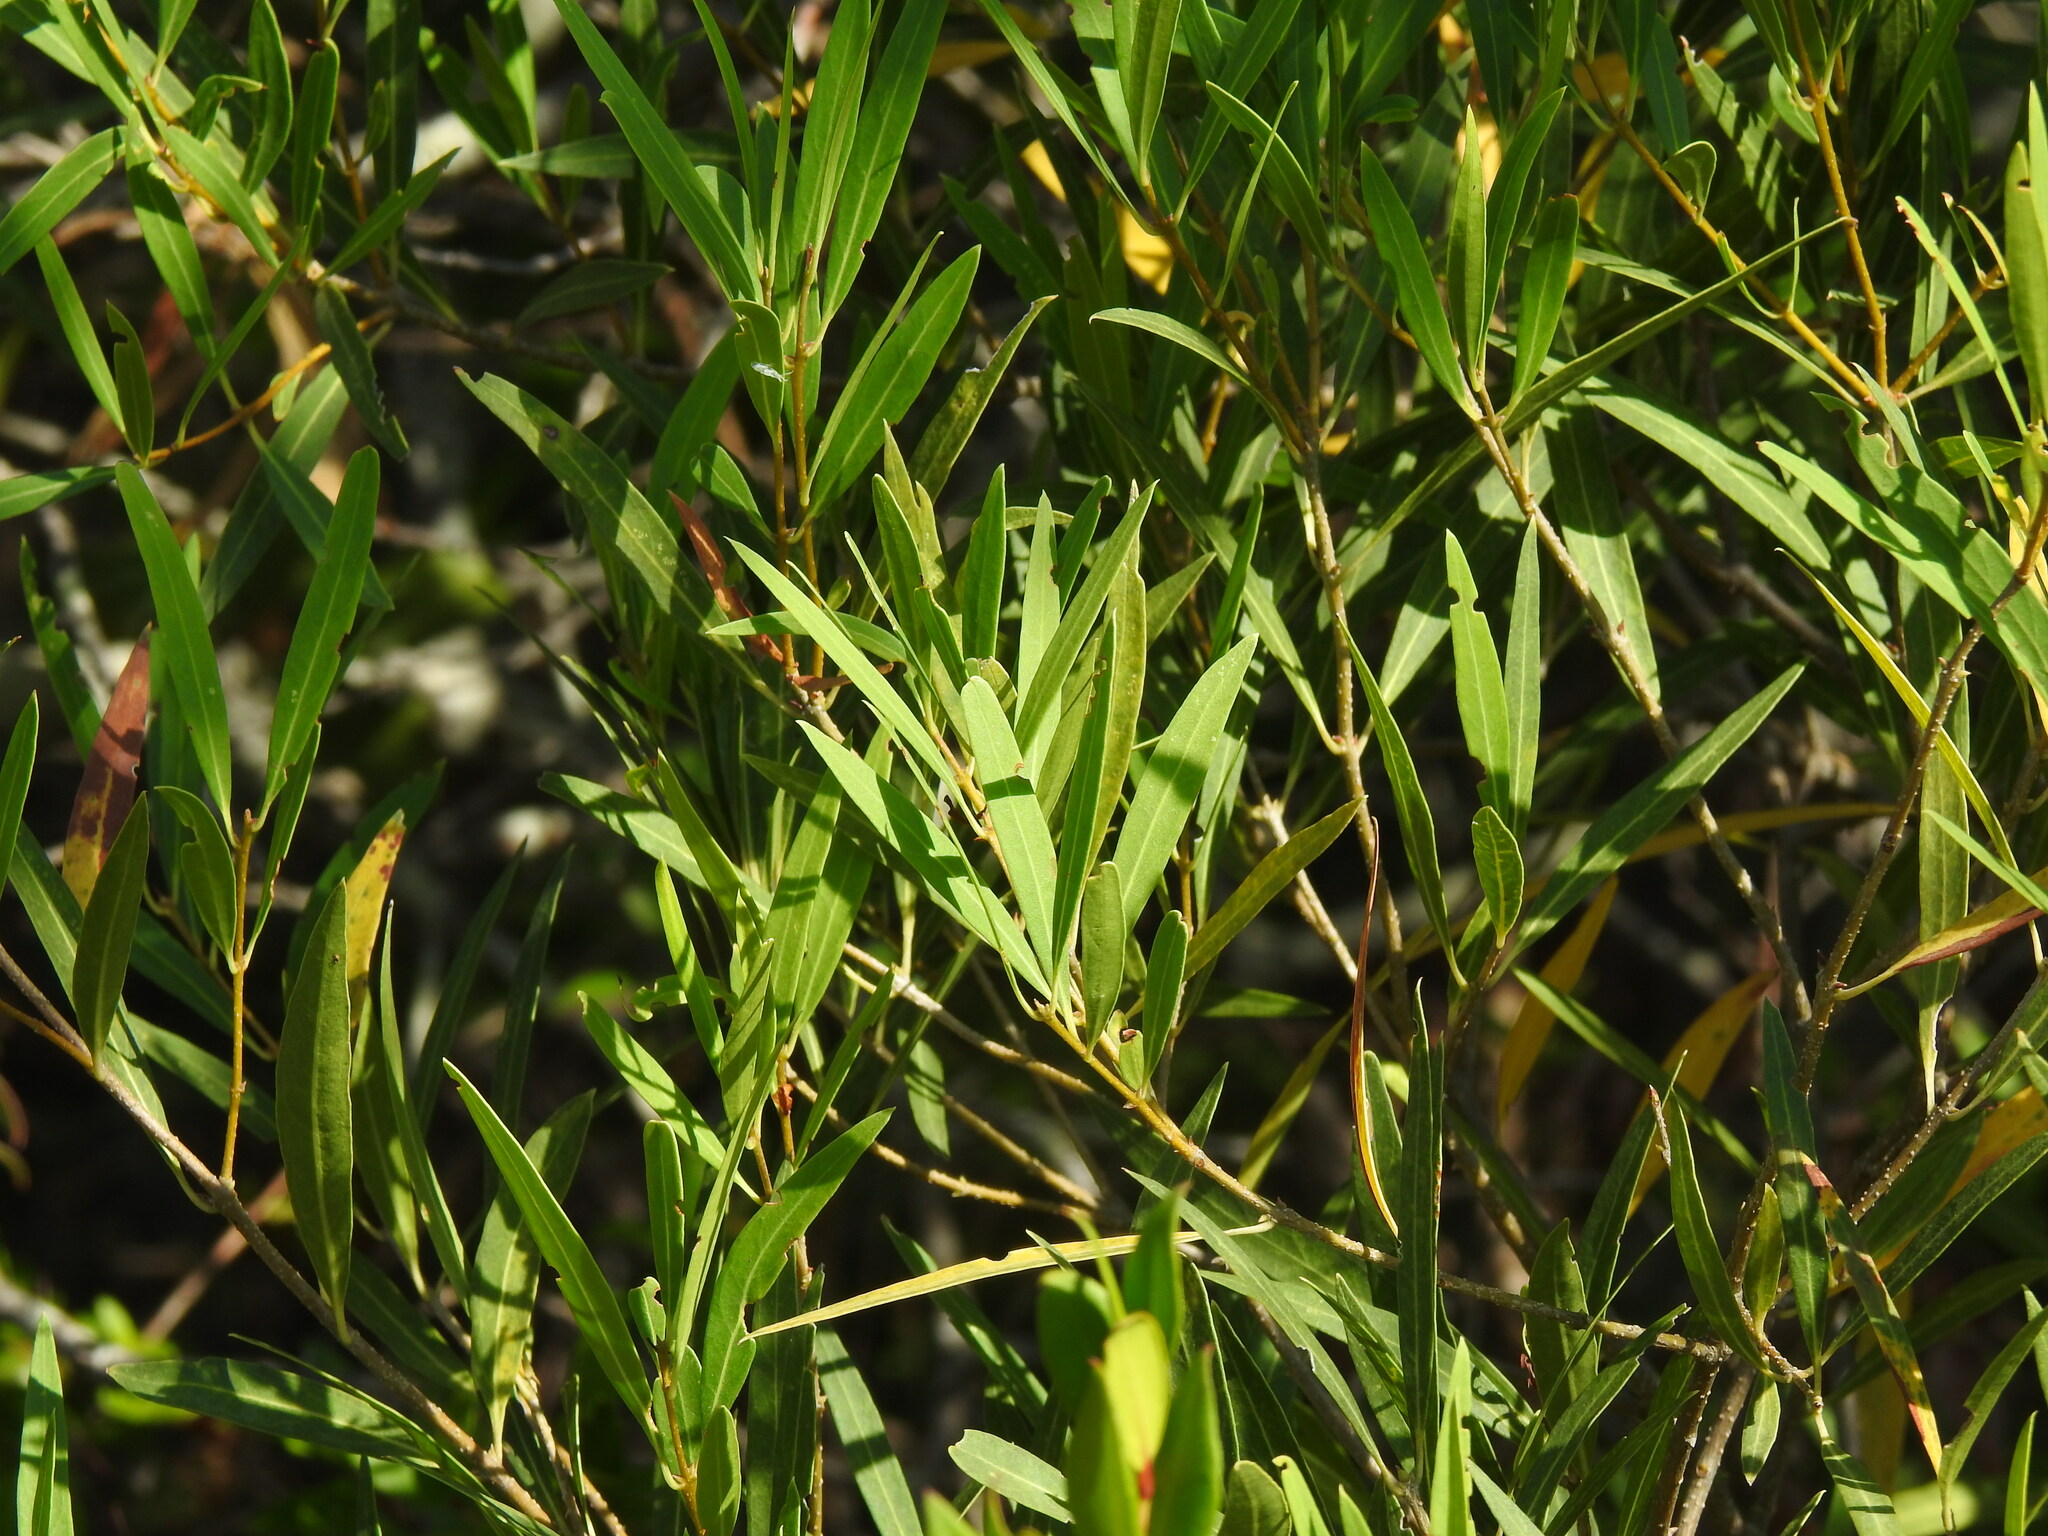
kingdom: Plantae
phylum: Tracheophyta
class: Magnoliopsida
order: Lamiales
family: Oleaceae
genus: Phillyrea
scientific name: Phillyrea angustifolia
